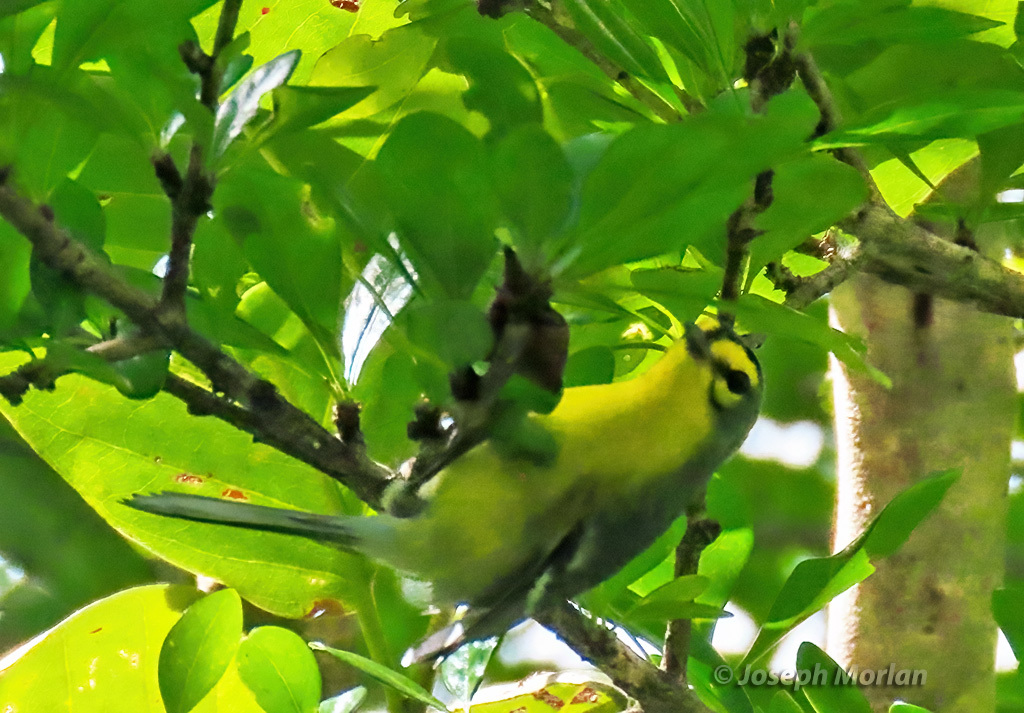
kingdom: Animalia
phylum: Chordata
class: Aves
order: Passeriformes
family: Parulidae
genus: Setophaga
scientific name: Setophaga delicata
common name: St. lucia warbler
